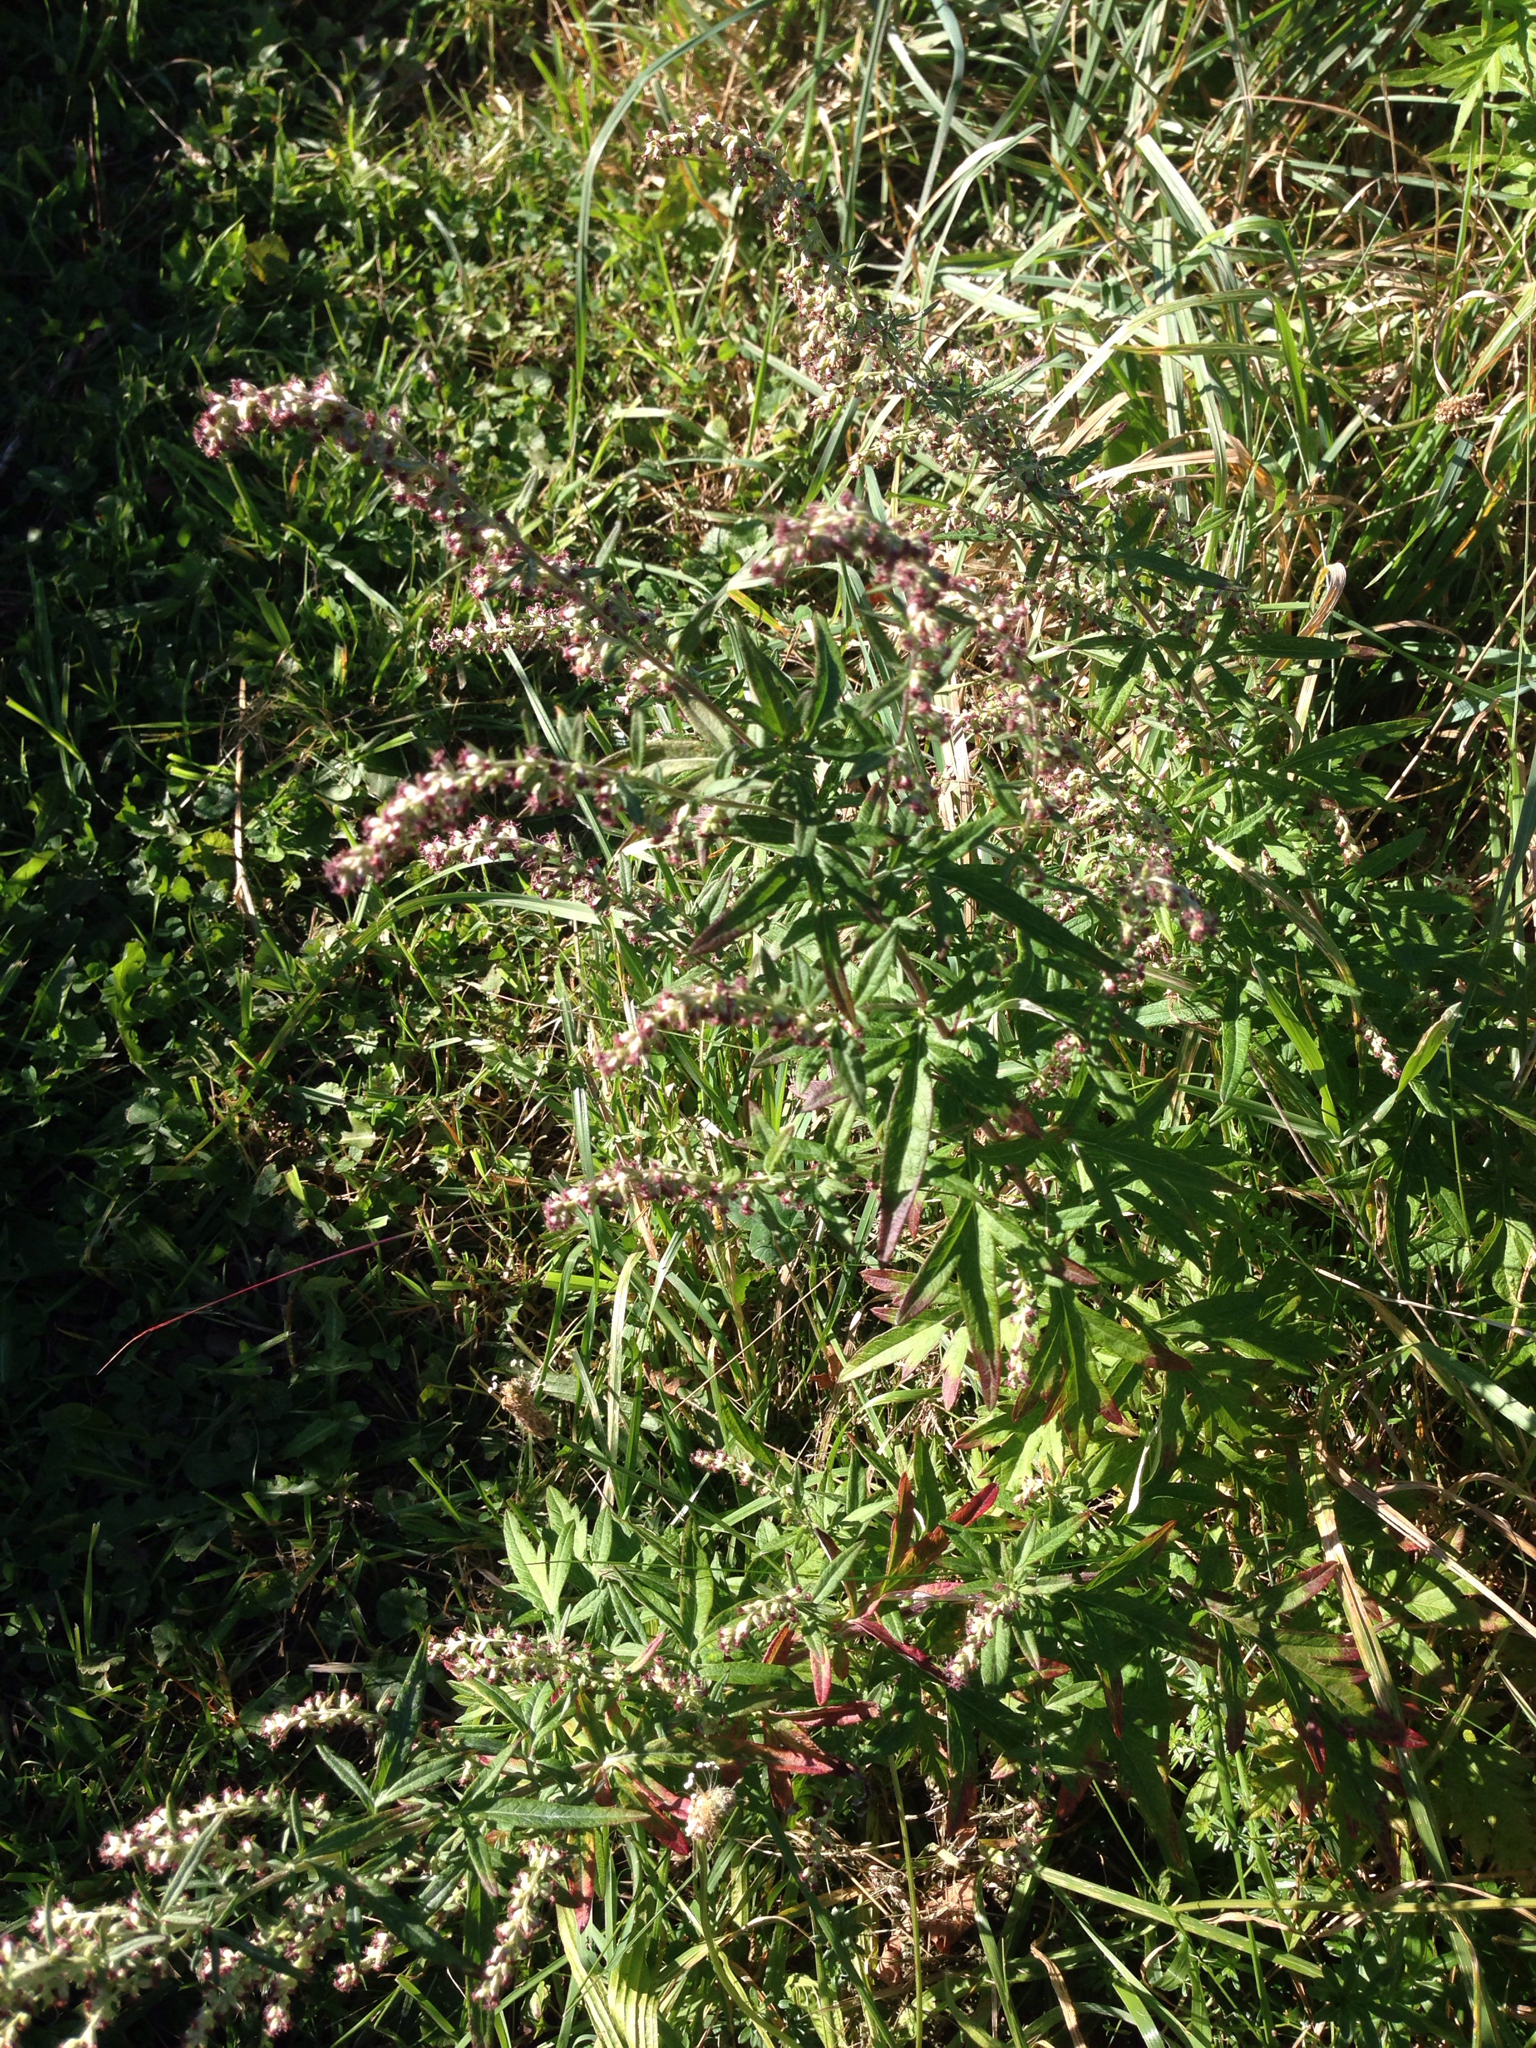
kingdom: Plantae
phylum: Tracheophyta
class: Magnoliopsida
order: Asterales
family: Asteraceae
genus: Artemisia
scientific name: Artemisia vulgaris
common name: Mugwort
